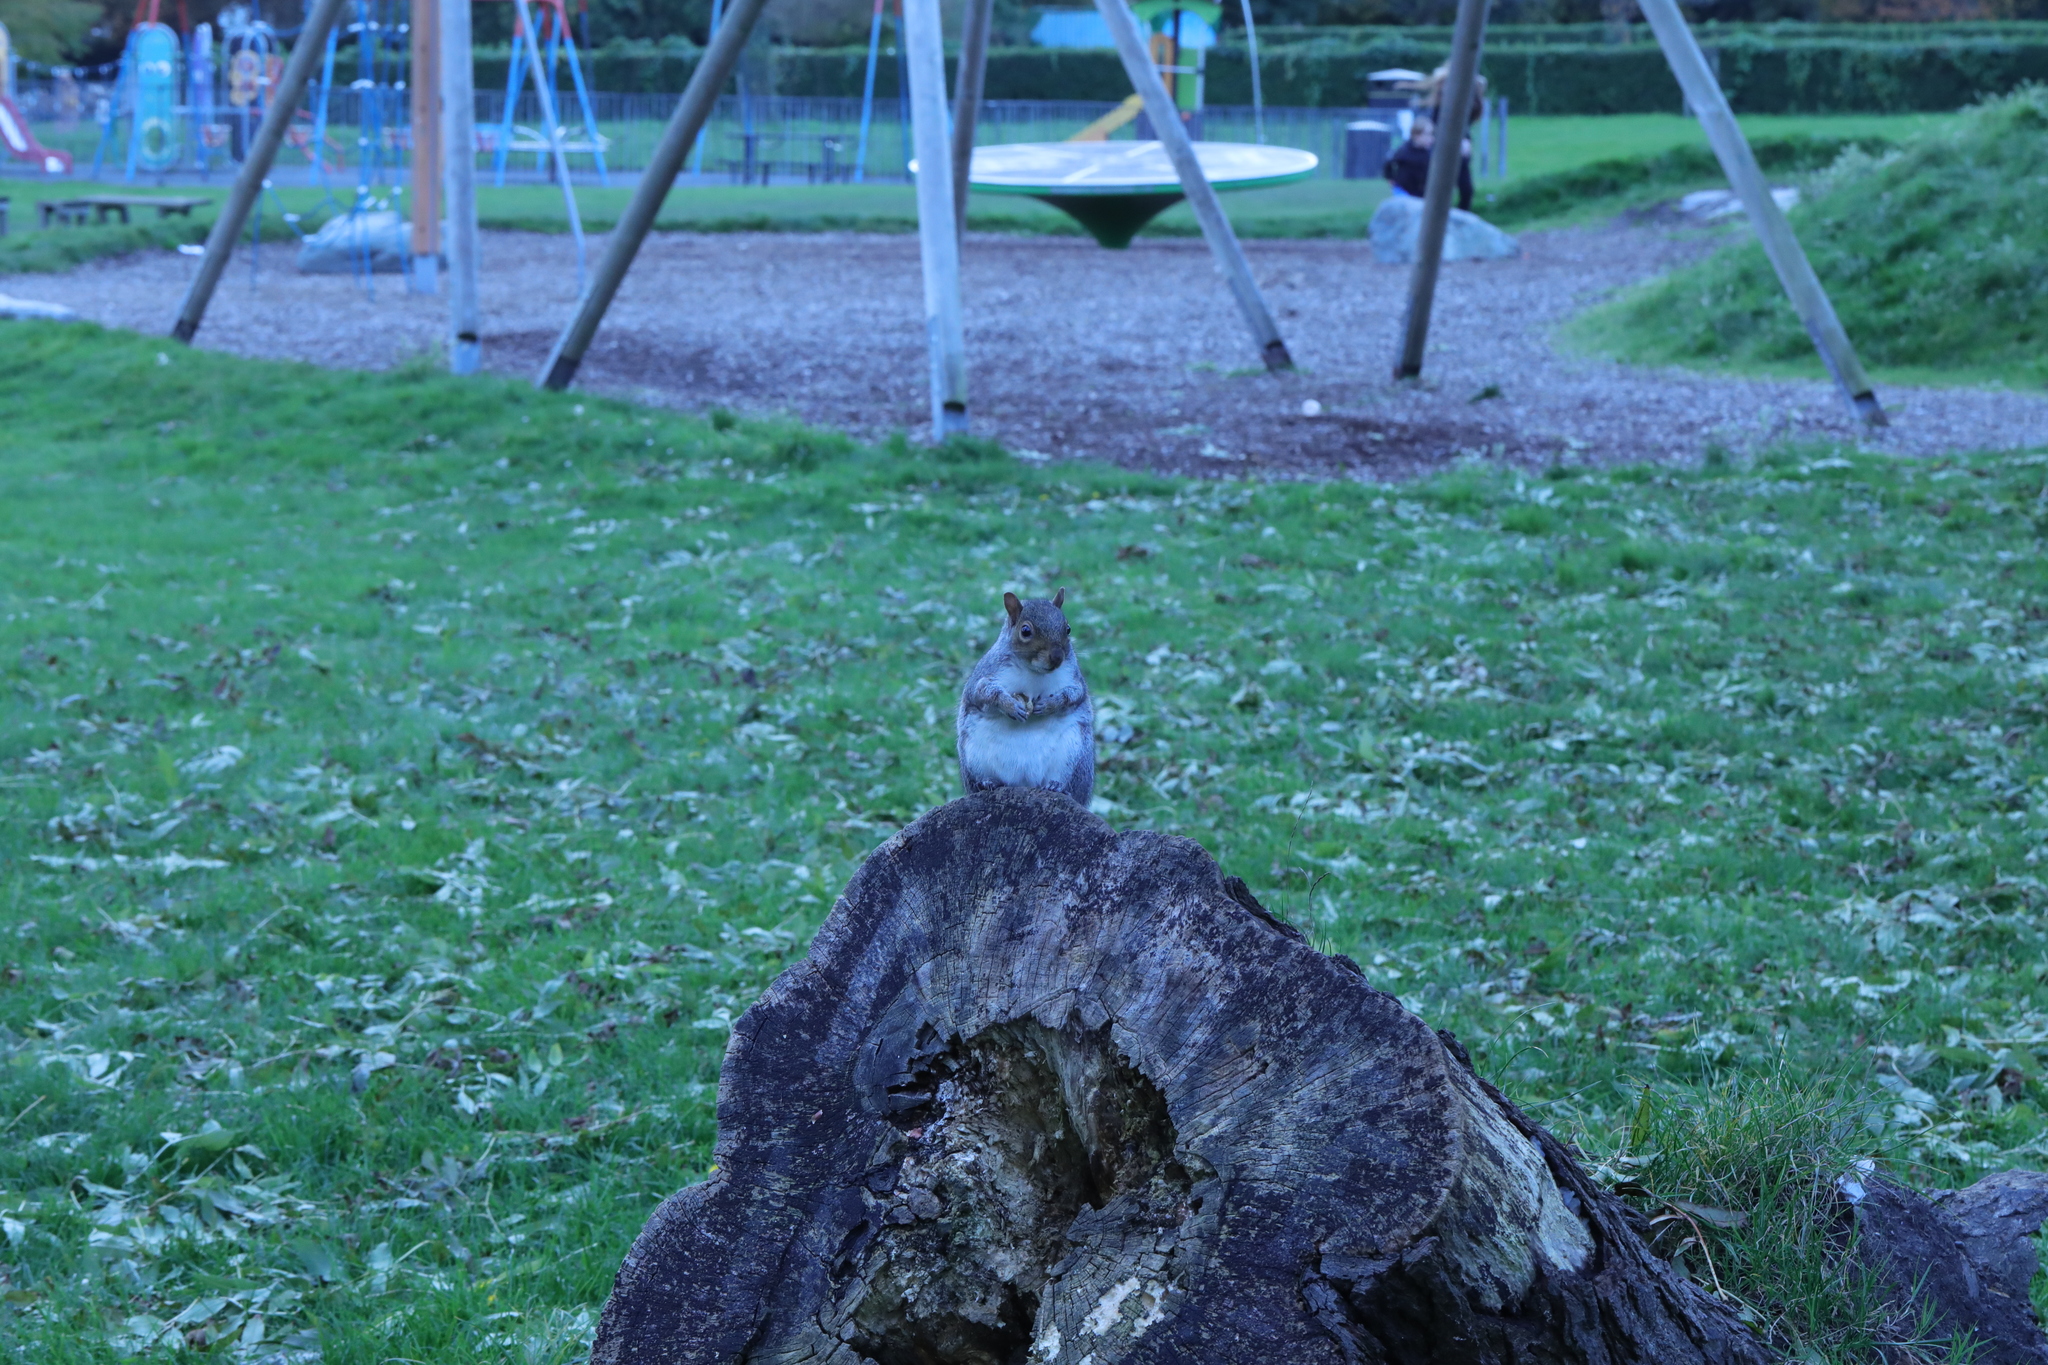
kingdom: Animalia
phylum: Chordata
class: Mammalia
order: Rodentia
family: Sciuridae
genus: Sciurus
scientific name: Sciurus carolinensis
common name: Eastern gray squirrel
